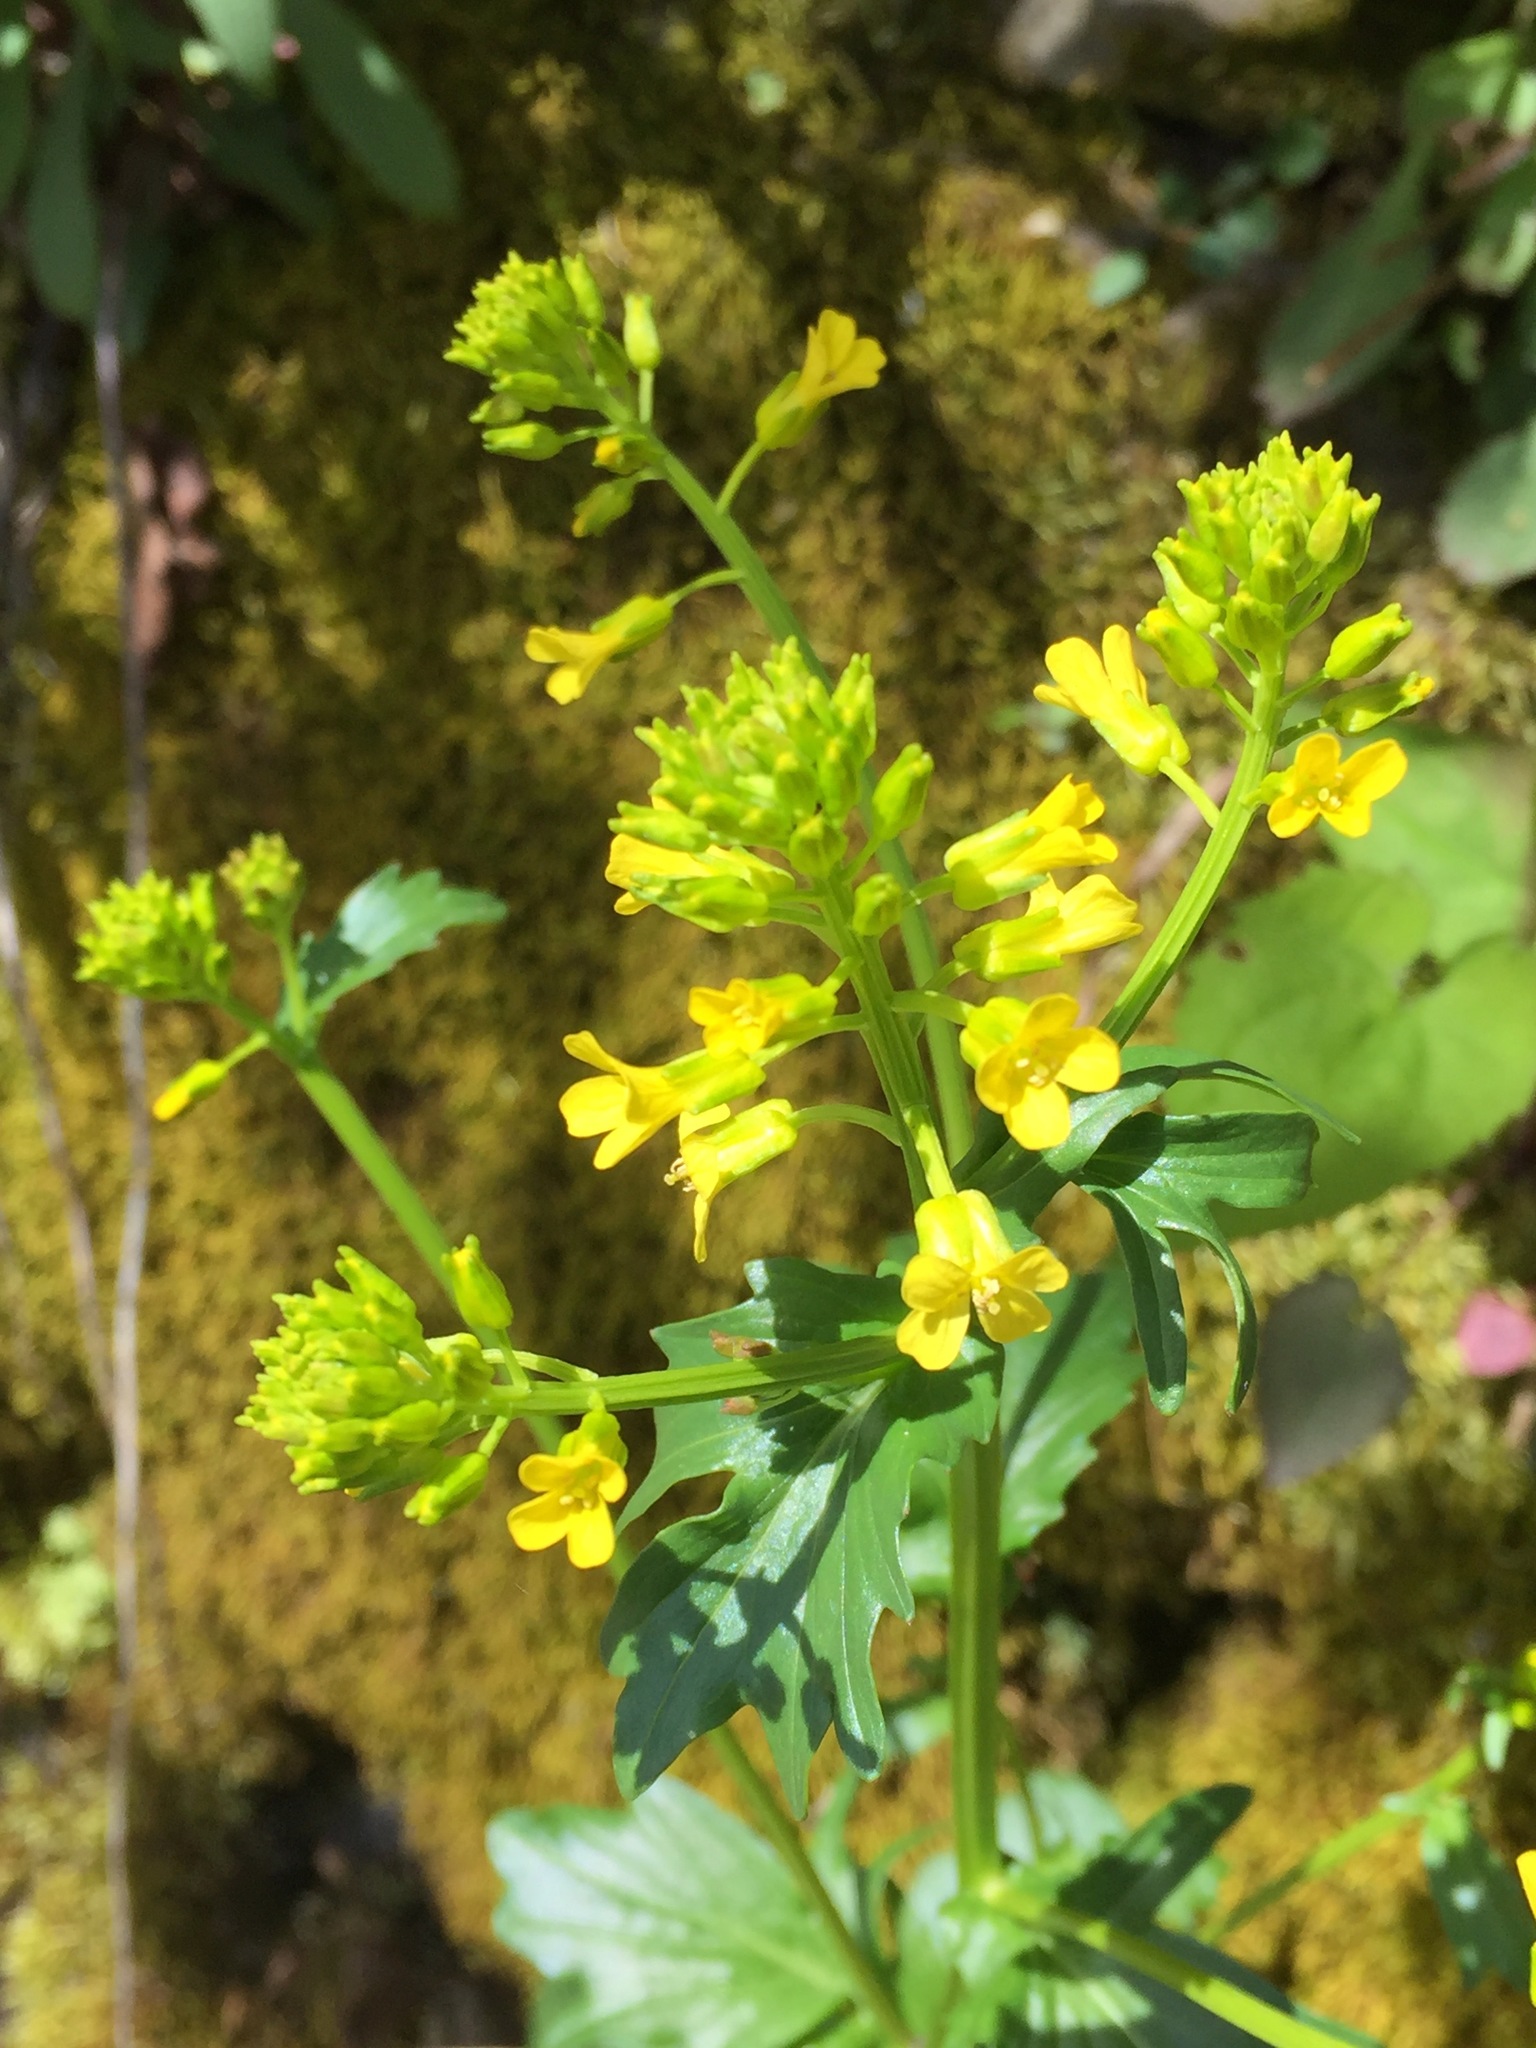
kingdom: Plantae
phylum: Tracheophyta
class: Magnoliopsida
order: Brassicales
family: Brassicaceae
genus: Barbarea
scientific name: Barbarea vulgaris
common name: Cressy-greens
